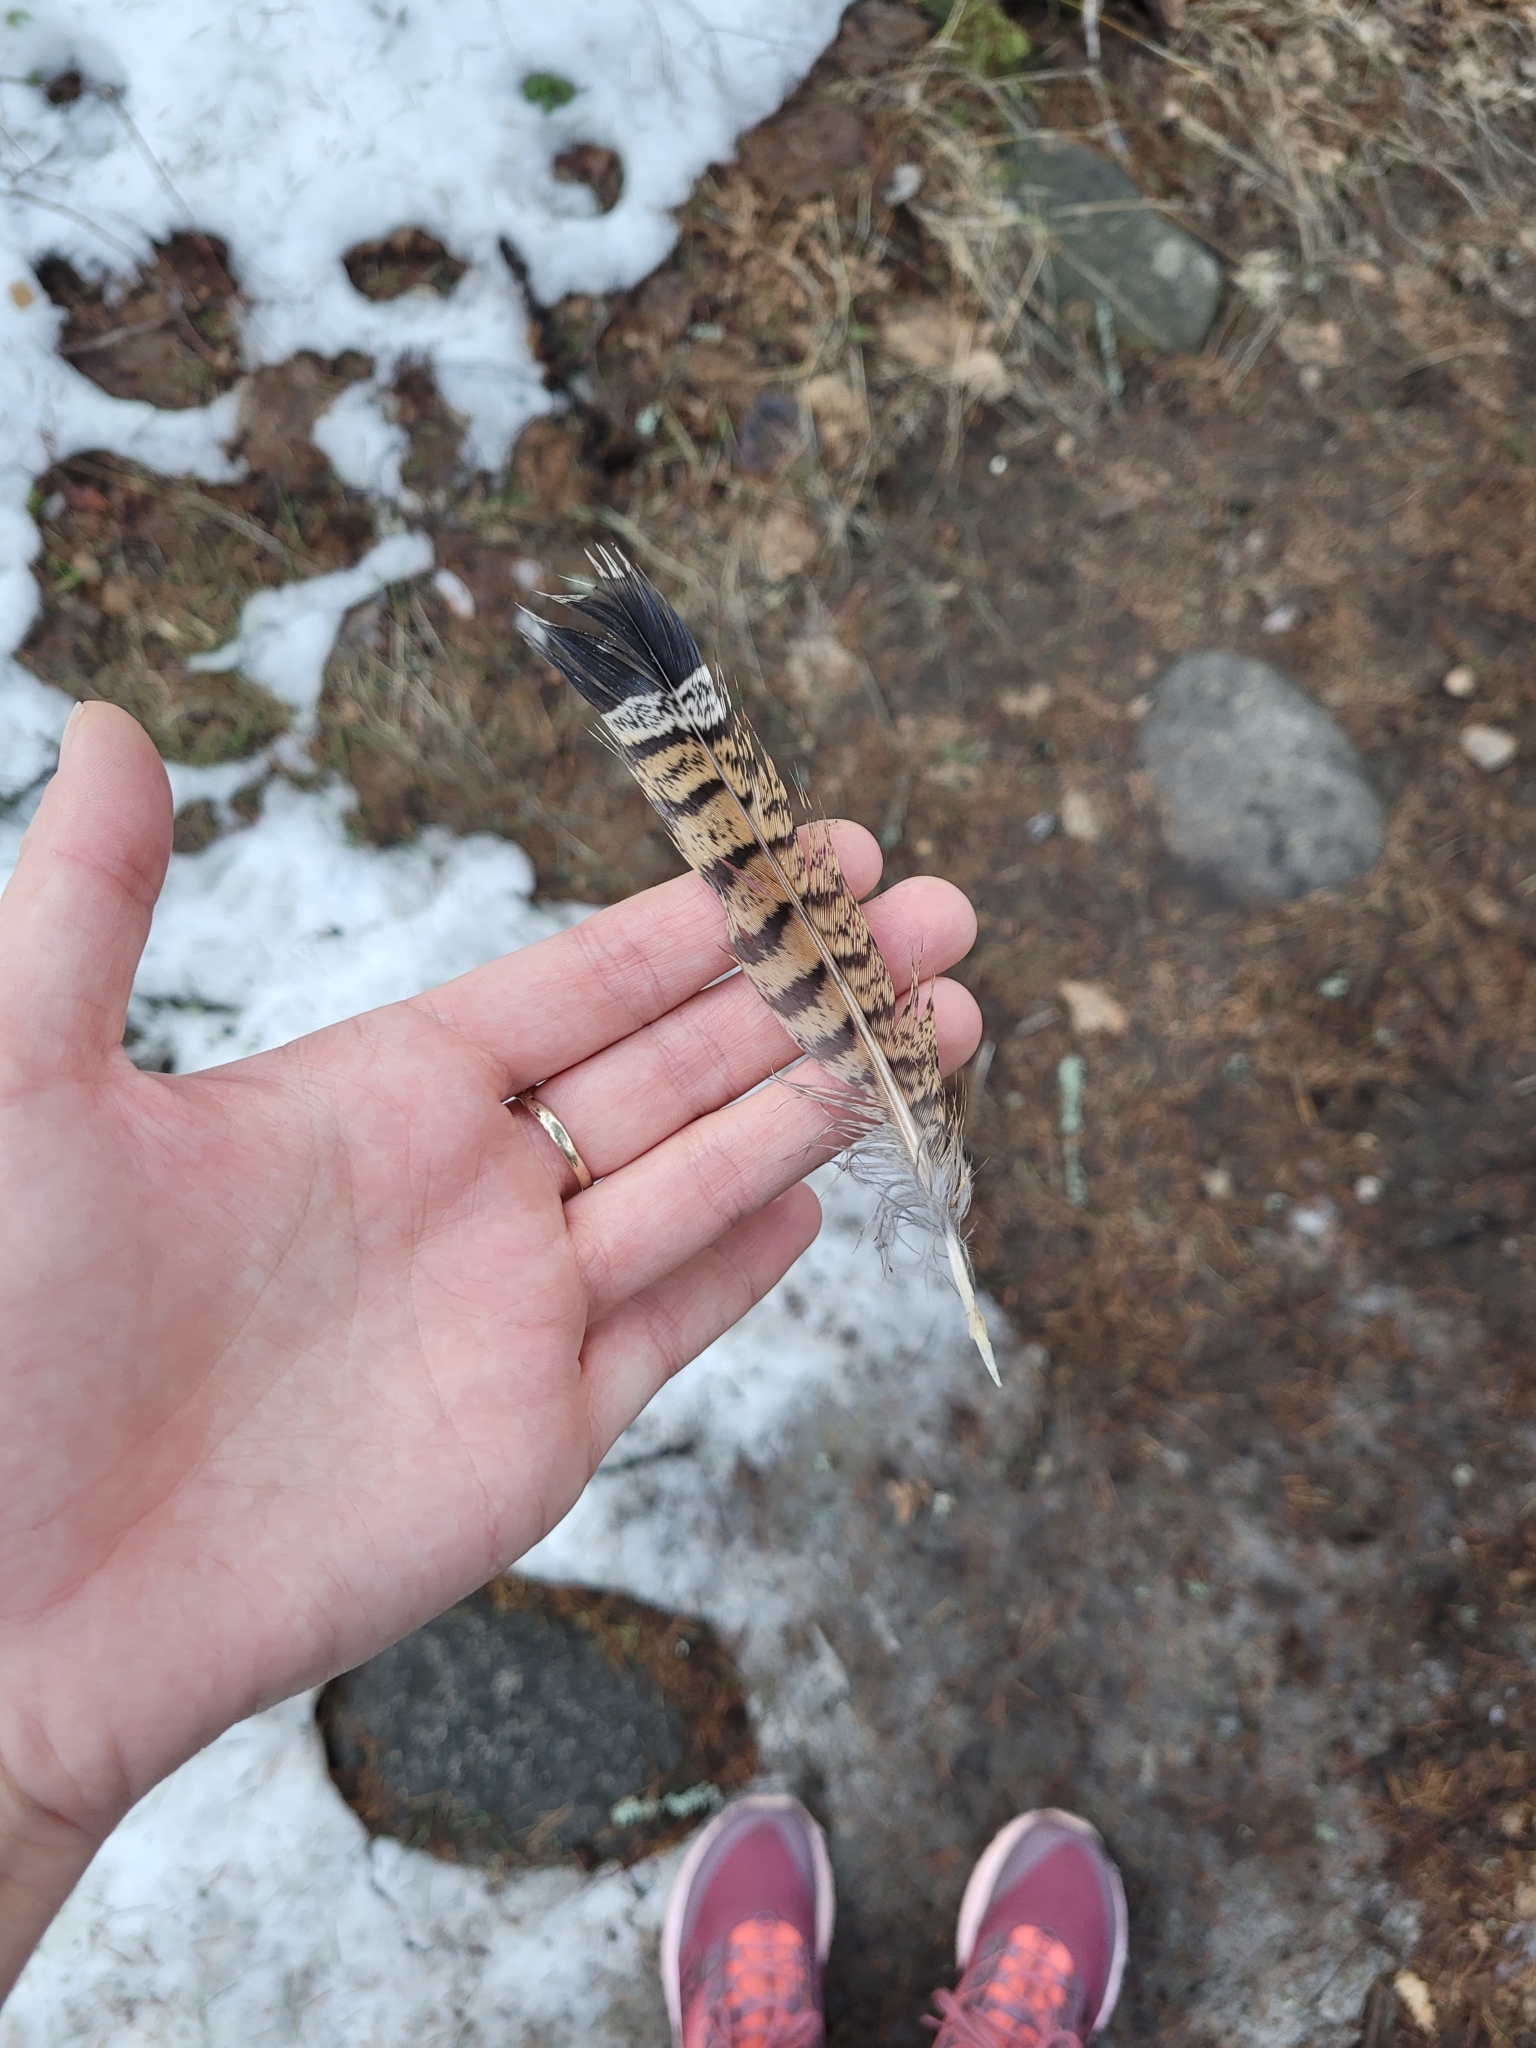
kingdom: Animalia
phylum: Chordata
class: Aves
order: Galliformes
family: Phasianidae
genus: Bonasa
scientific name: Bonasa umbellus
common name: Ruffed grouse
